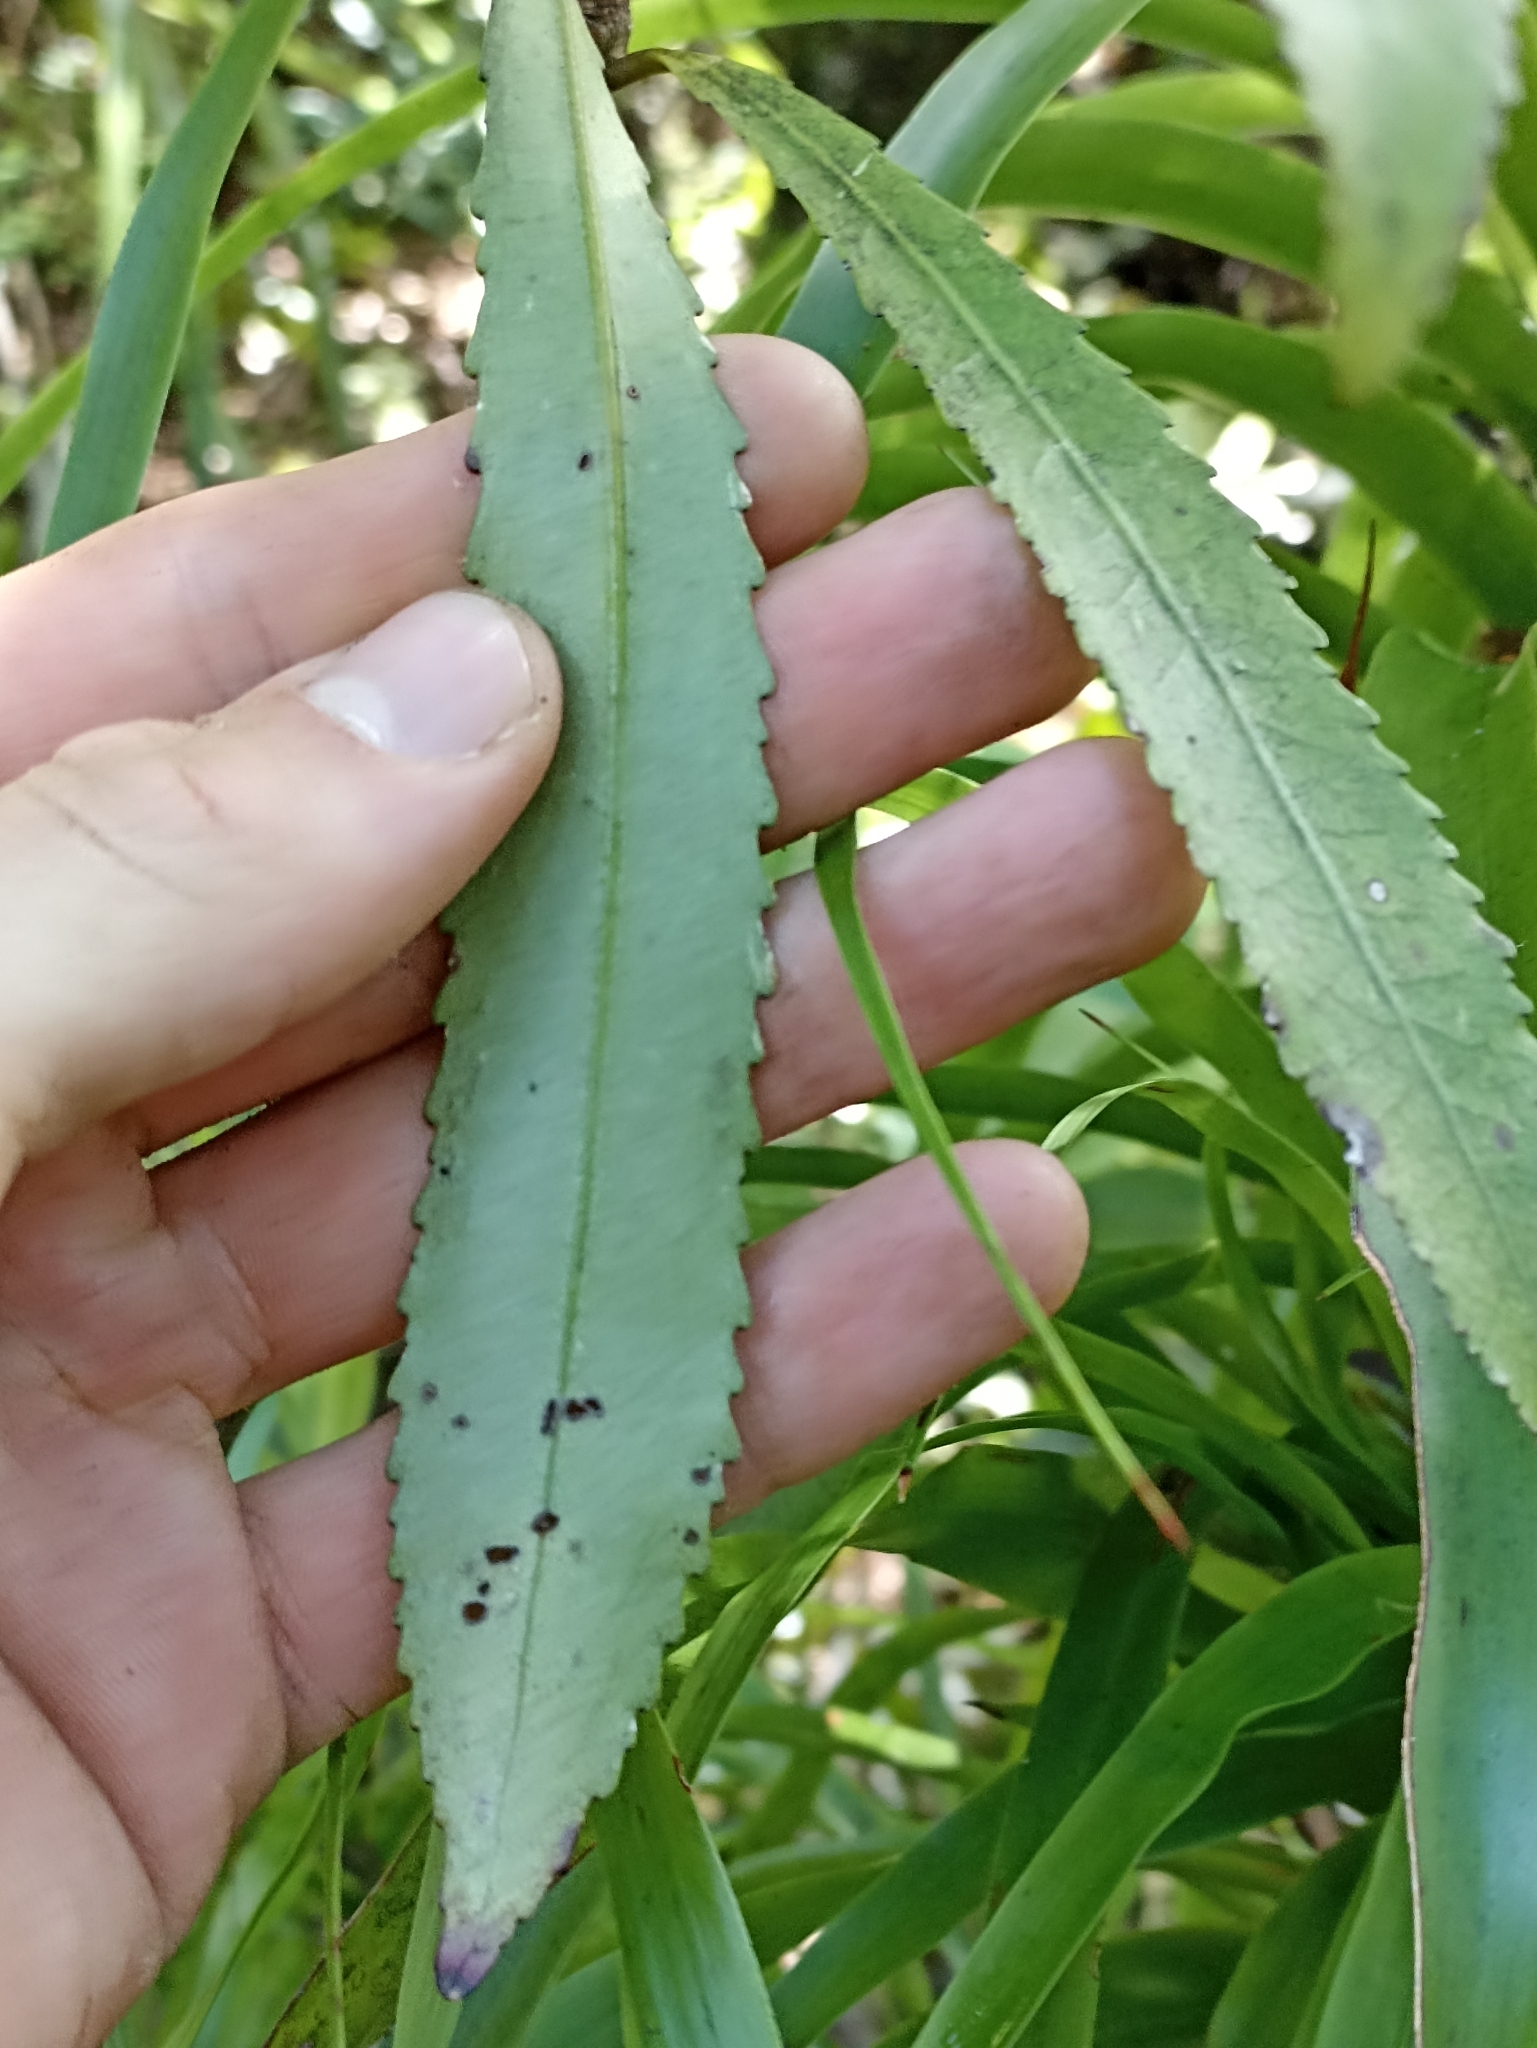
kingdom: Plantae
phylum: Tracheophyta
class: Magnoliopsida
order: Crossosomatales
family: Ixerbaceae
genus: Ixerba
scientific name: Ixerba brexioides
